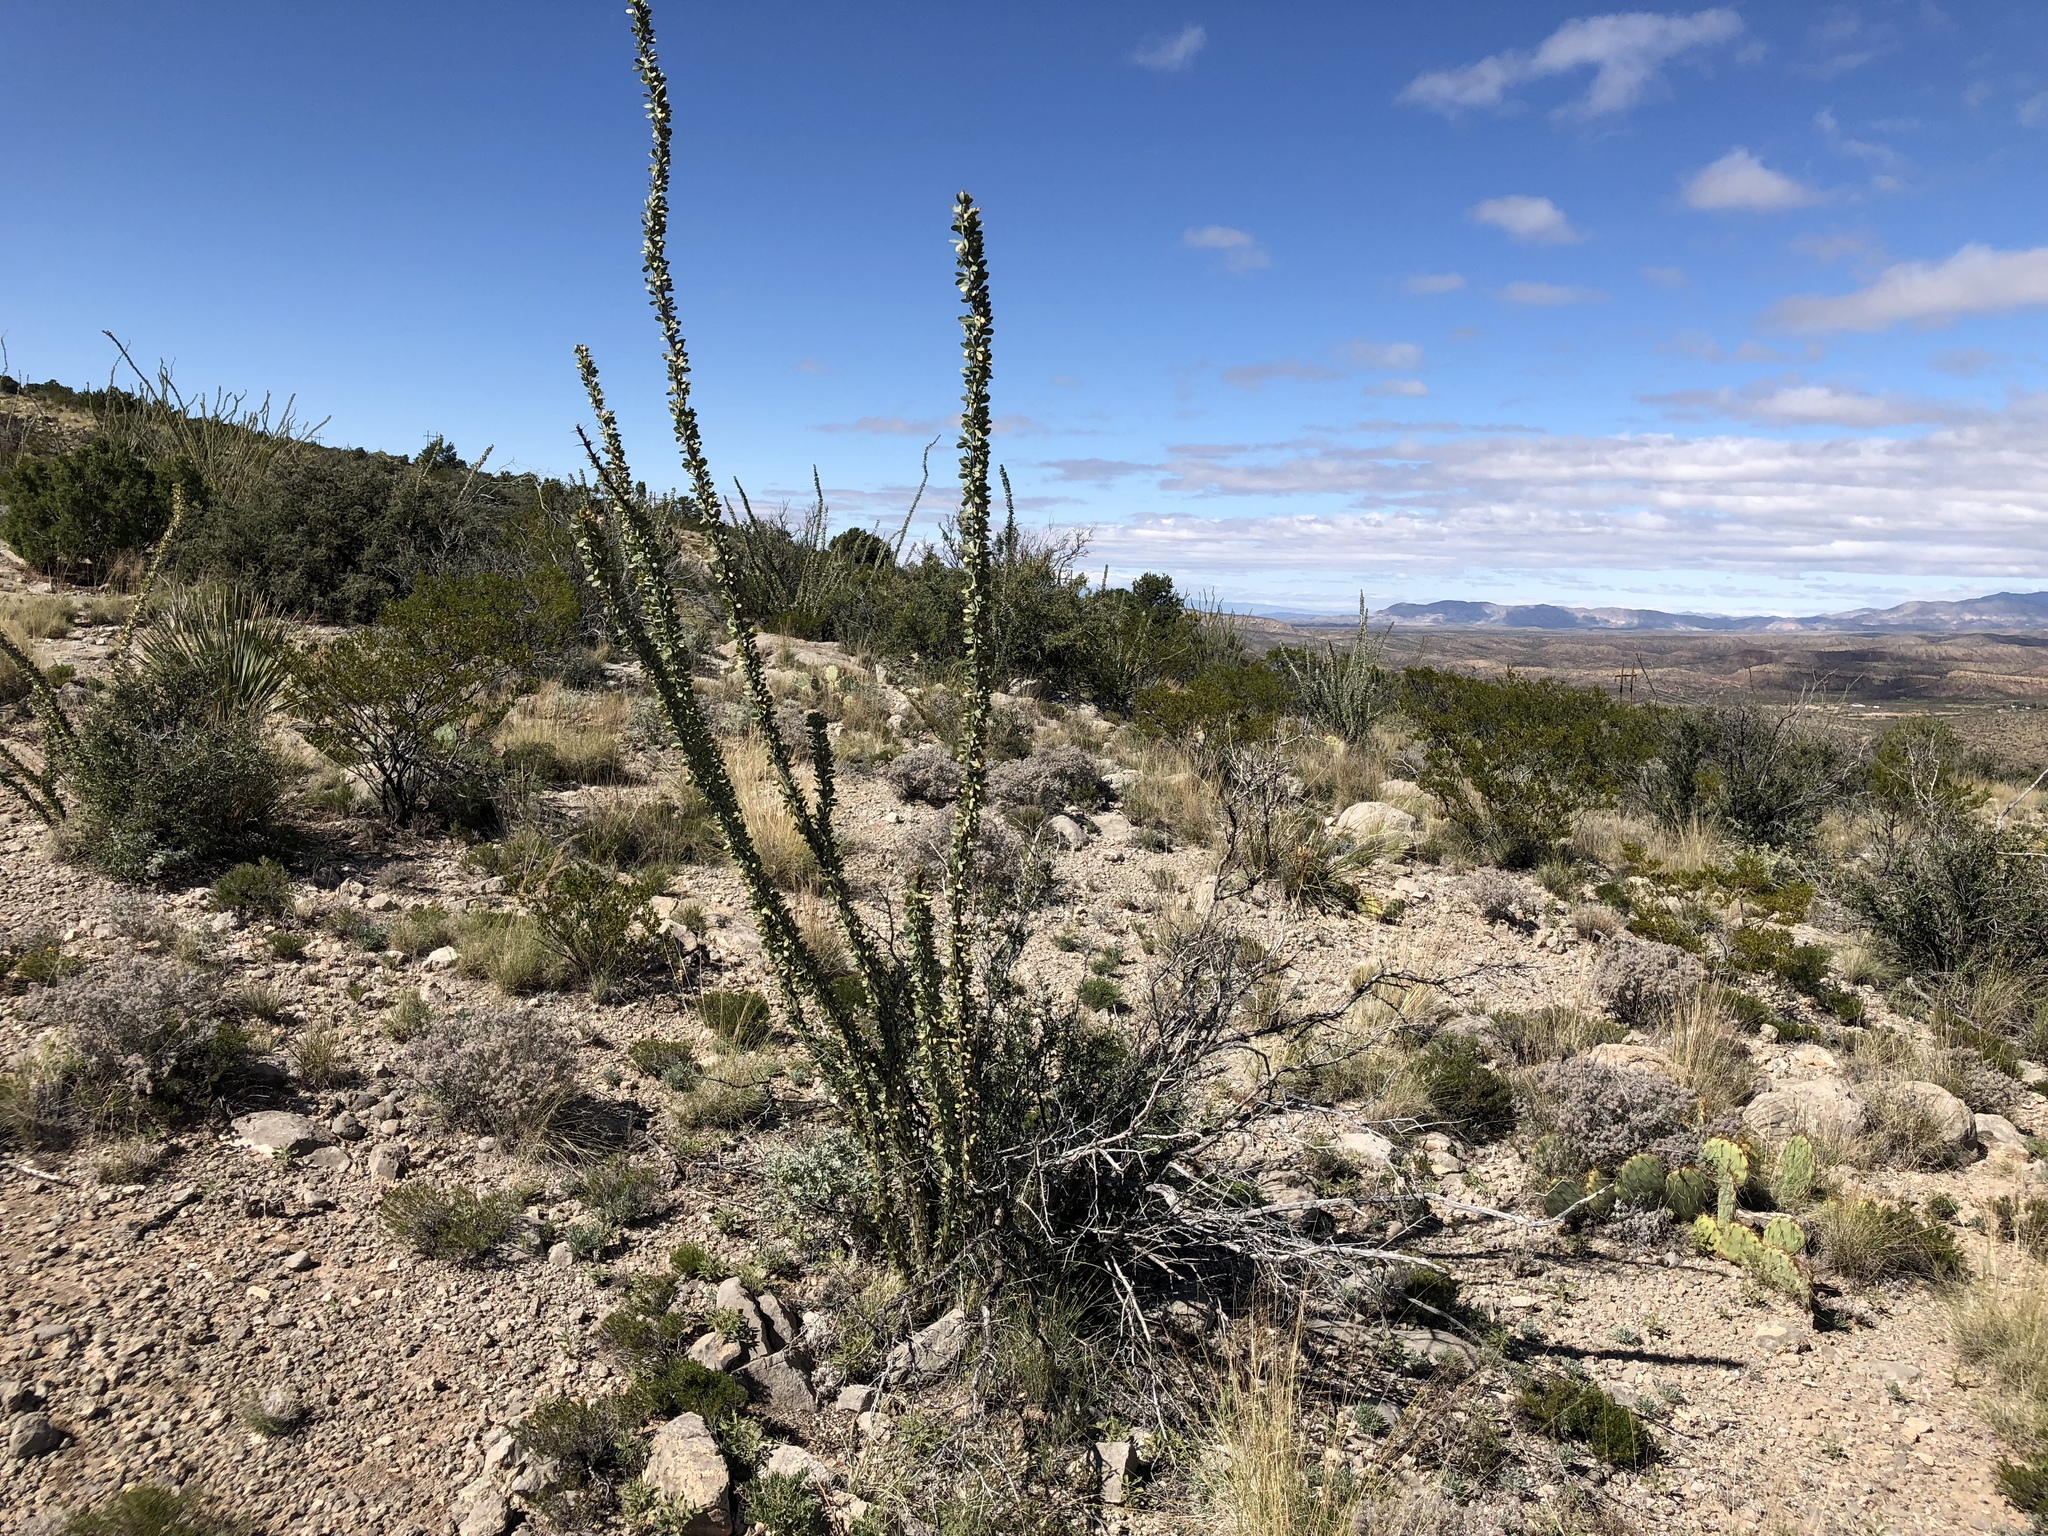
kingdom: Plantae
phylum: Tracheophyta
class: Magnoliopsida
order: Ericales
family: Fouquieriaceae
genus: Fouquieria
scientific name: Fouquieria splendens
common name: Vine-cactus
